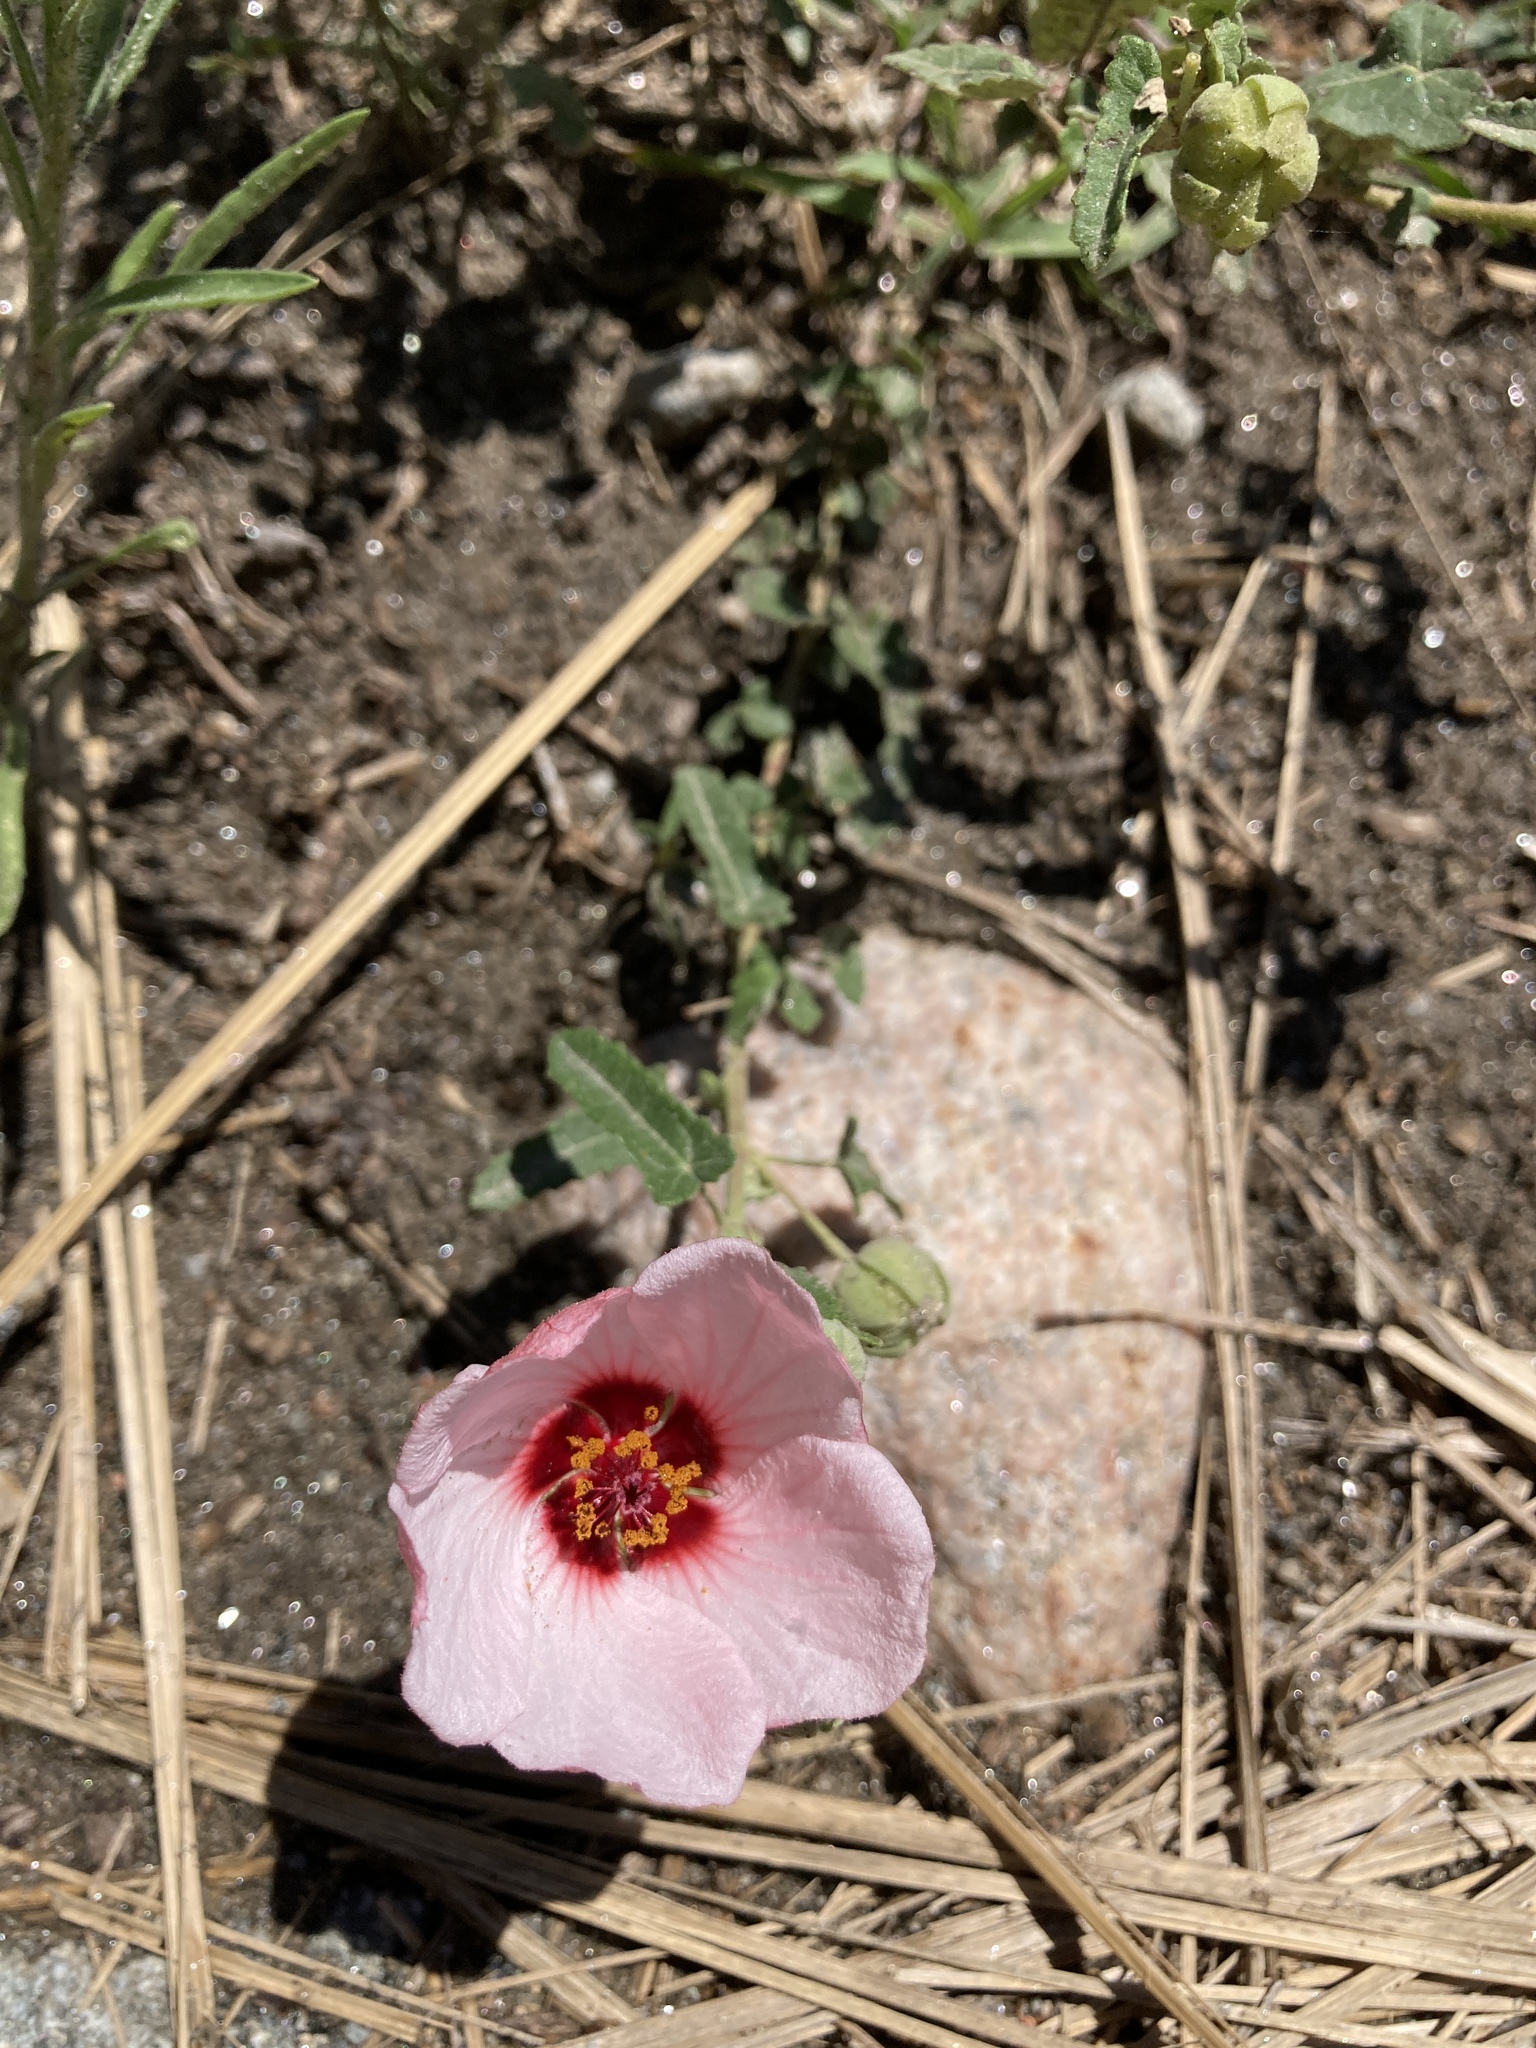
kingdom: Plantae
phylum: Tracheophyta
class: Magnoliopsida
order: Malvales
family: Malvaceae
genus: Pavonia
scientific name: Pavonia aurigloba
